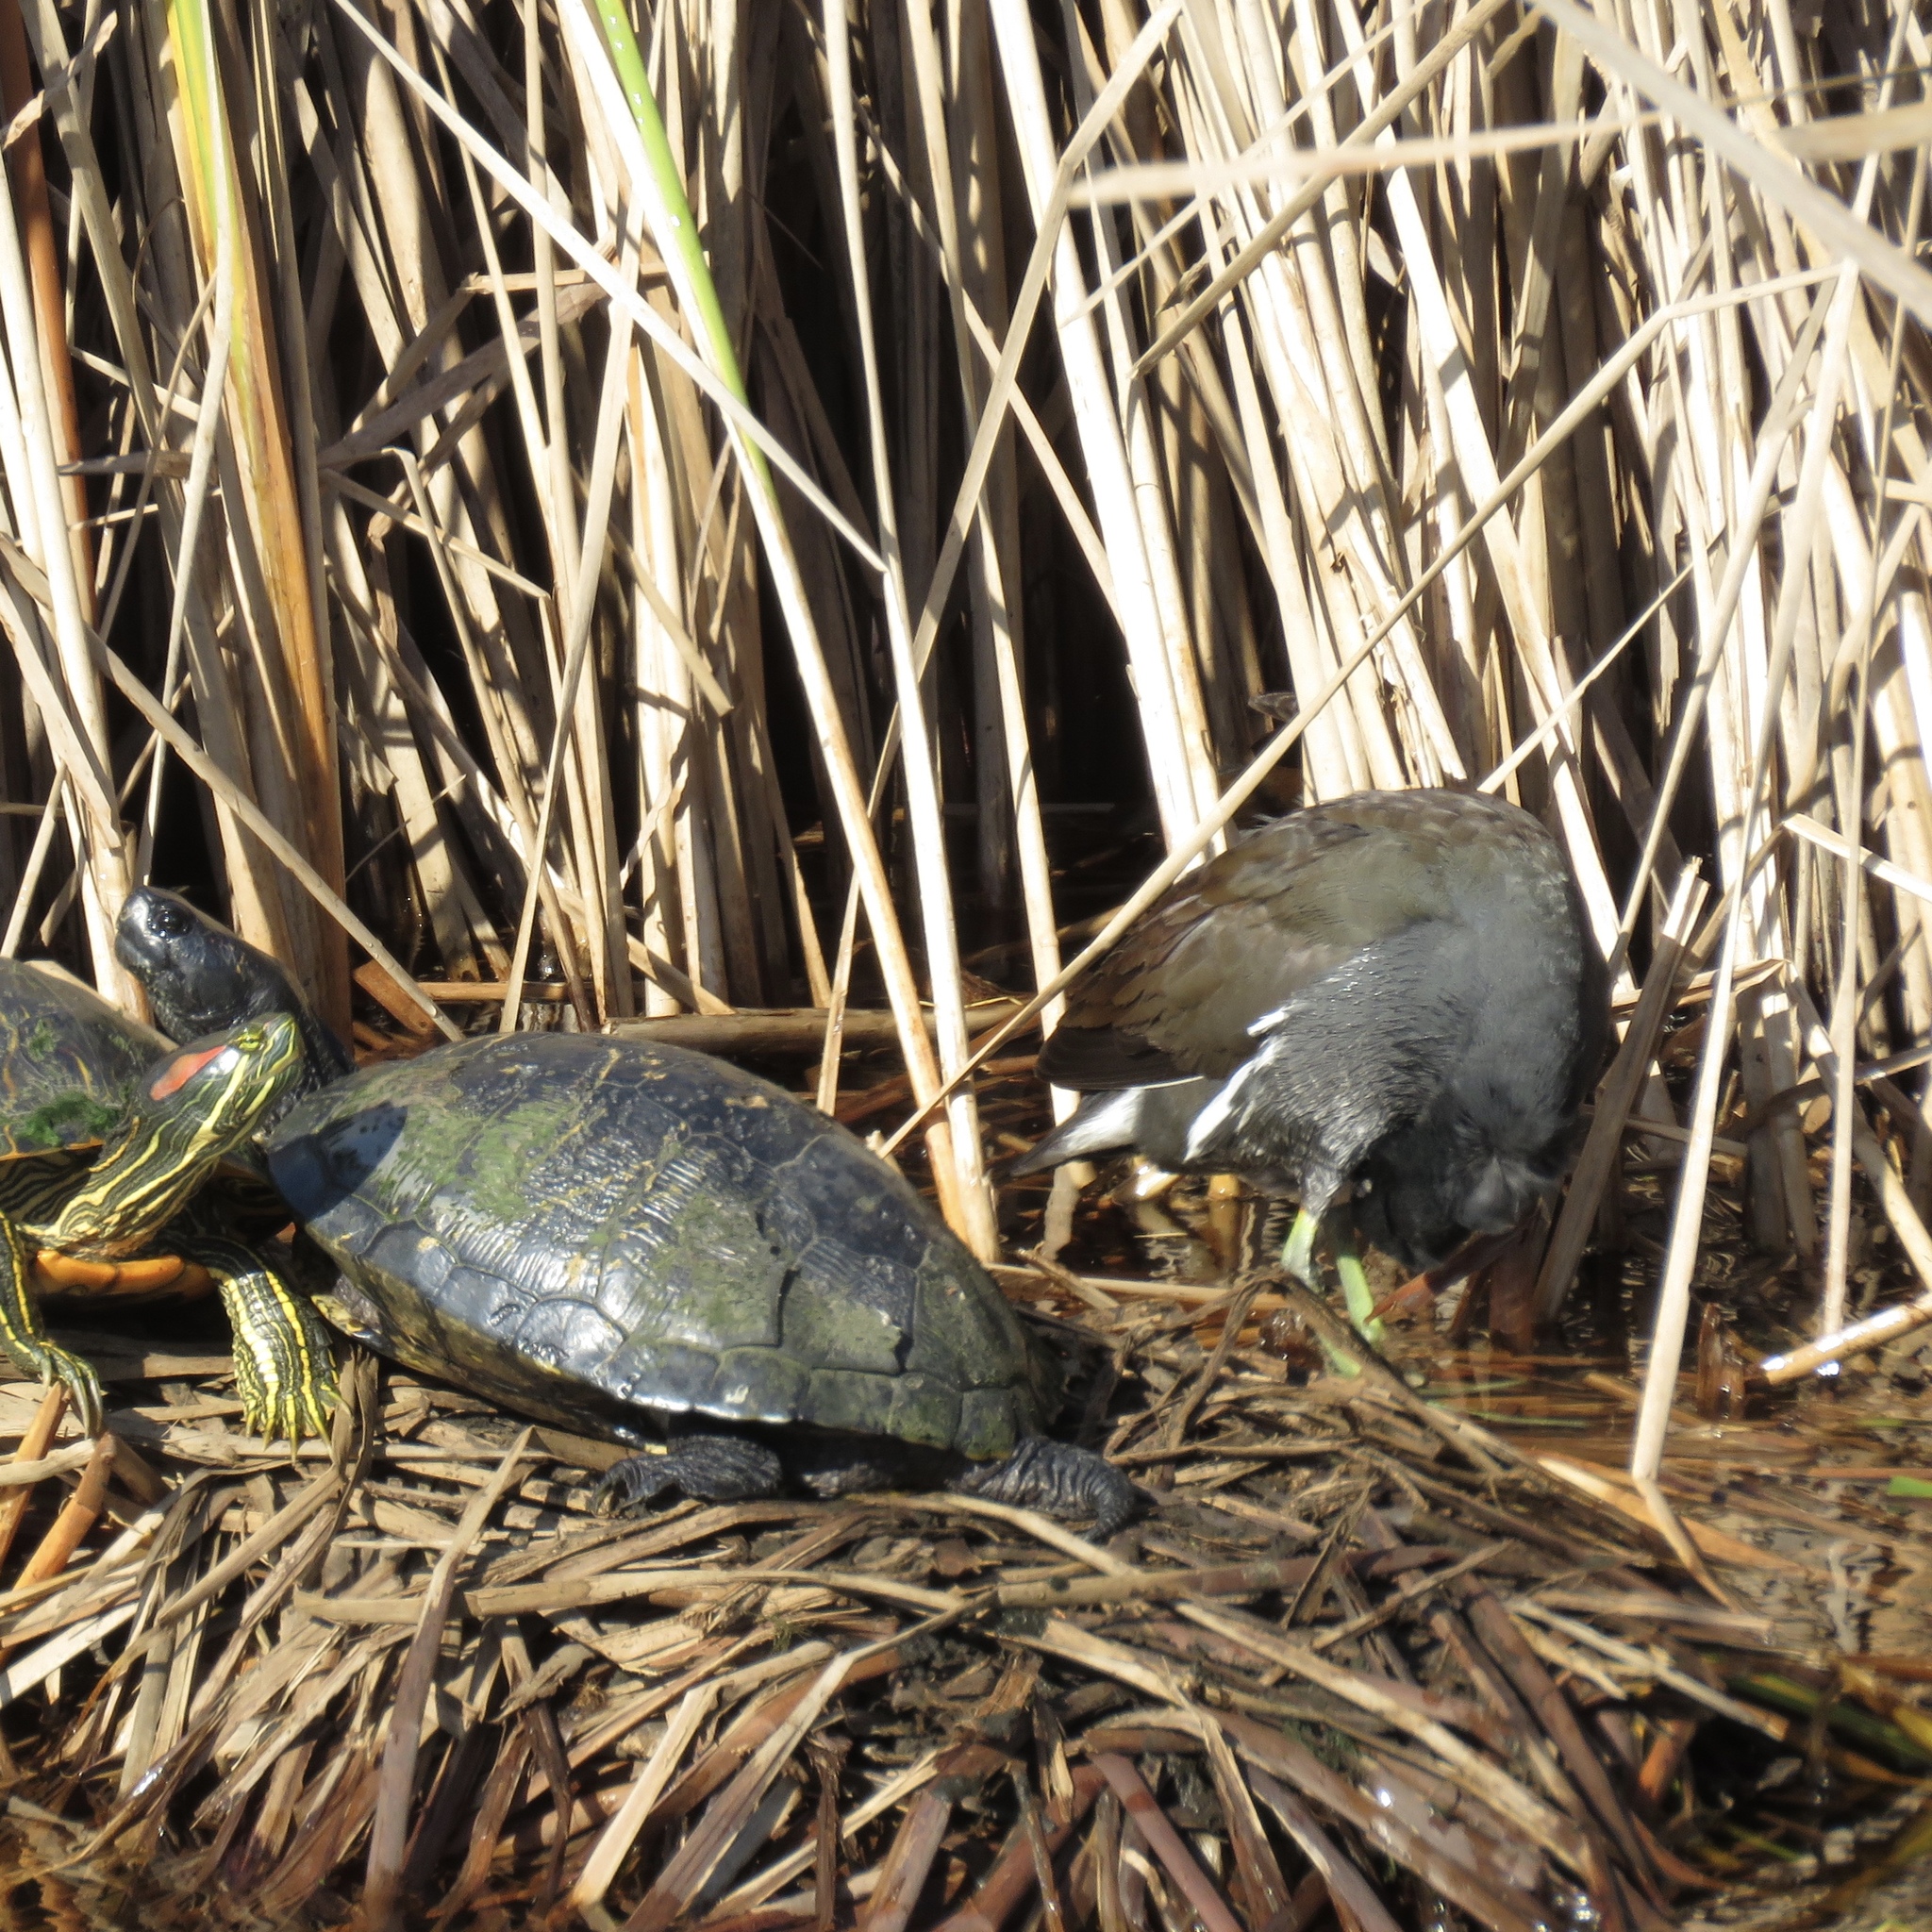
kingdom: Animalia
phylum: Chordata
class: Aves
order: Gruiformes
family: Rallidae
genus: Gallinula
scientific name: Gallinula chloropus
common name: Common moorhen
